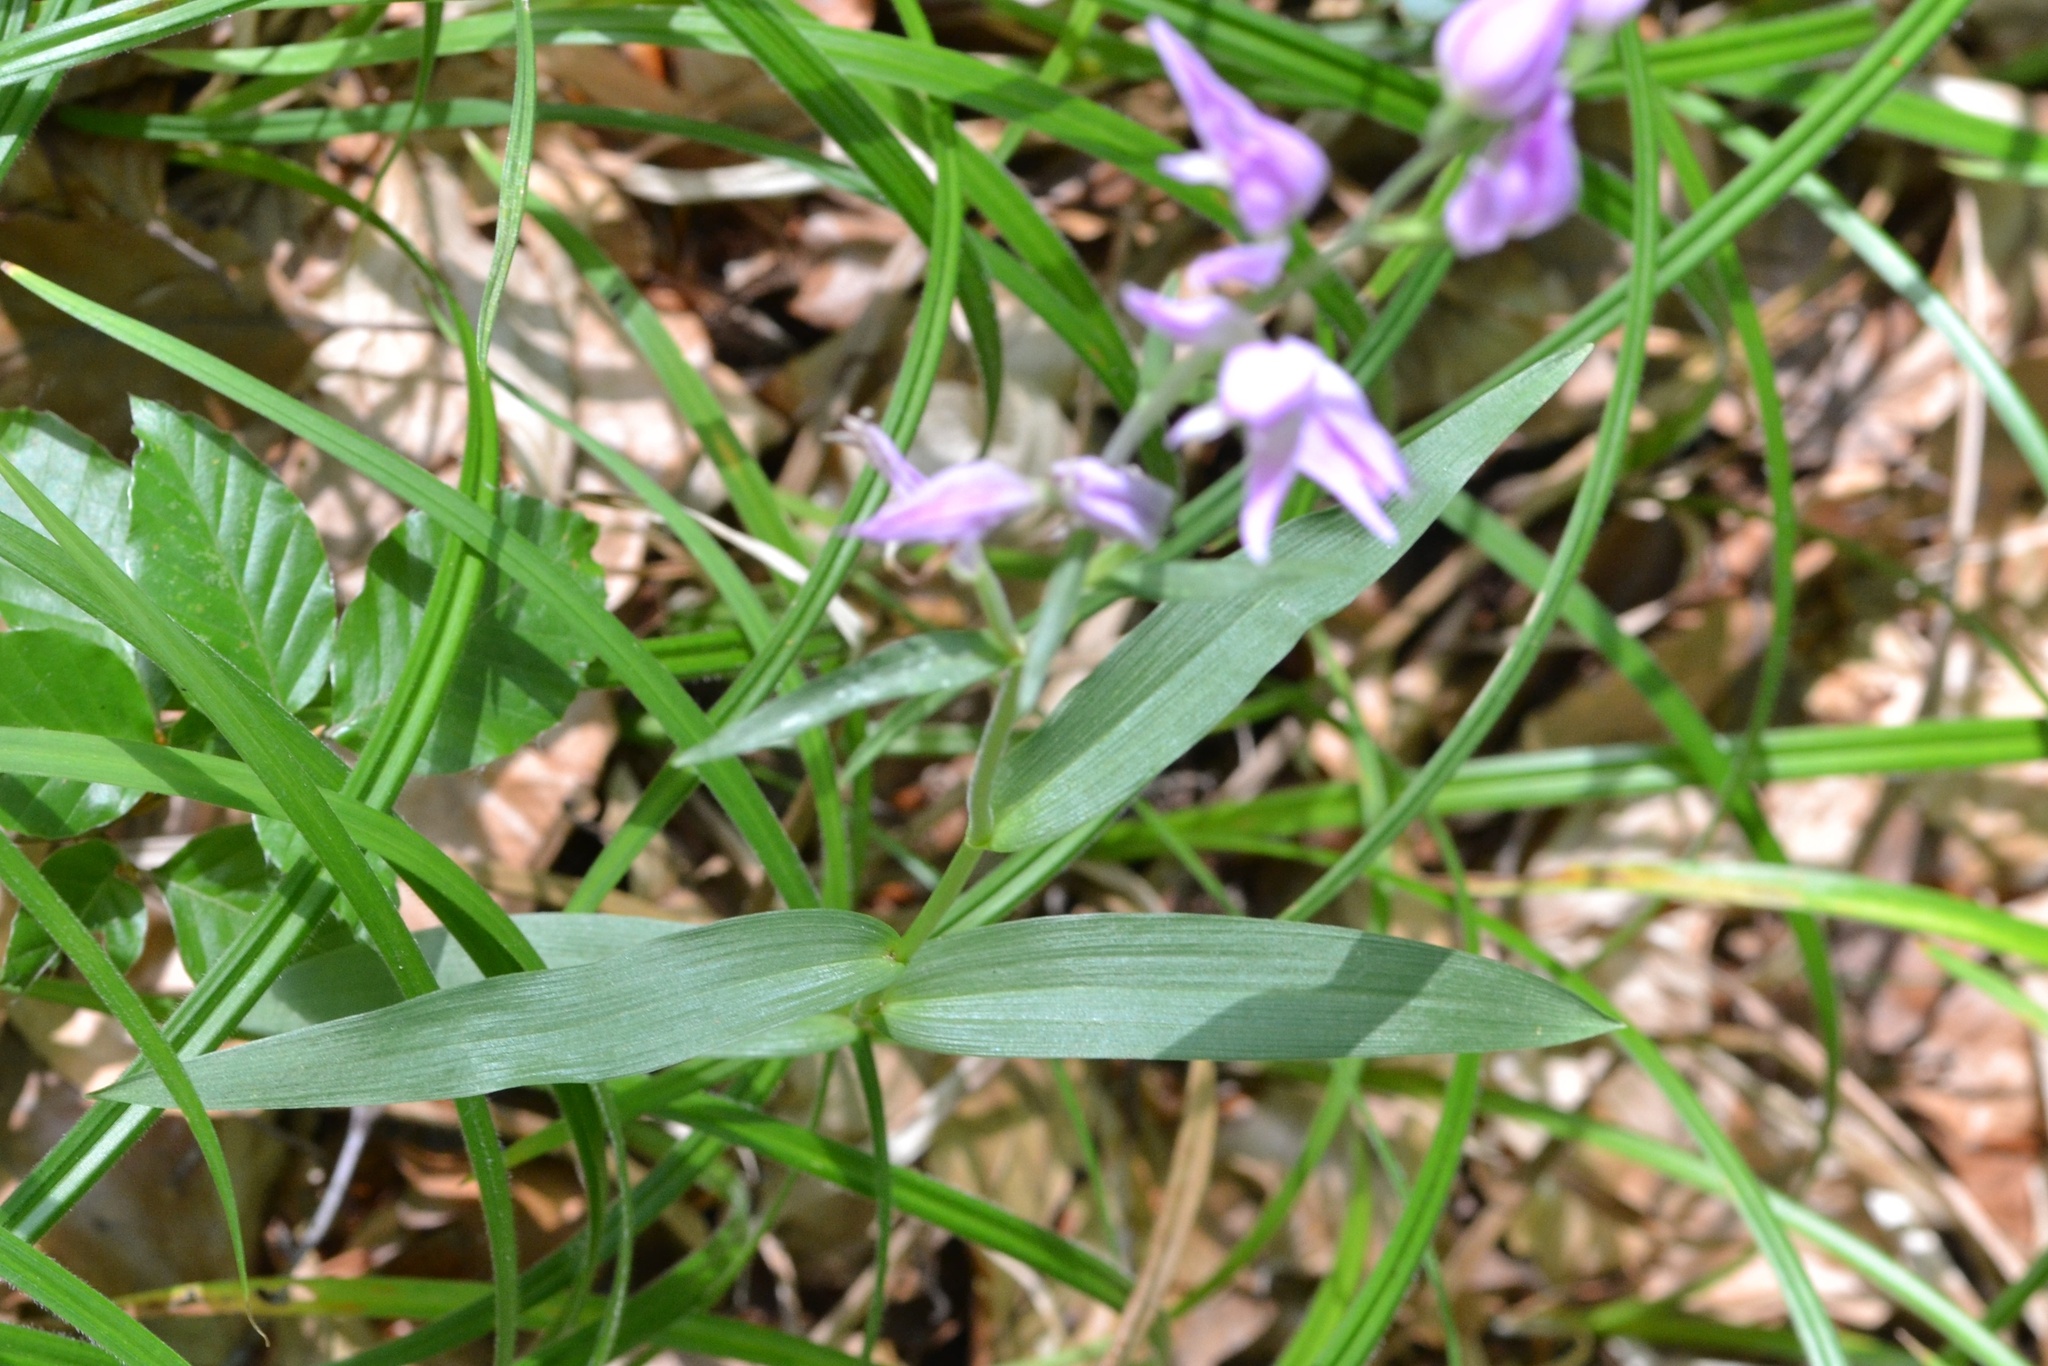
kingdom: Plantae
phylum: Tracheophyta
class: Liliopsida
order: Asparagales
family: Orchidaceae
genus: Cephalanthera
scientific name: Cephalanthera rubra
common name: Red helleborine
